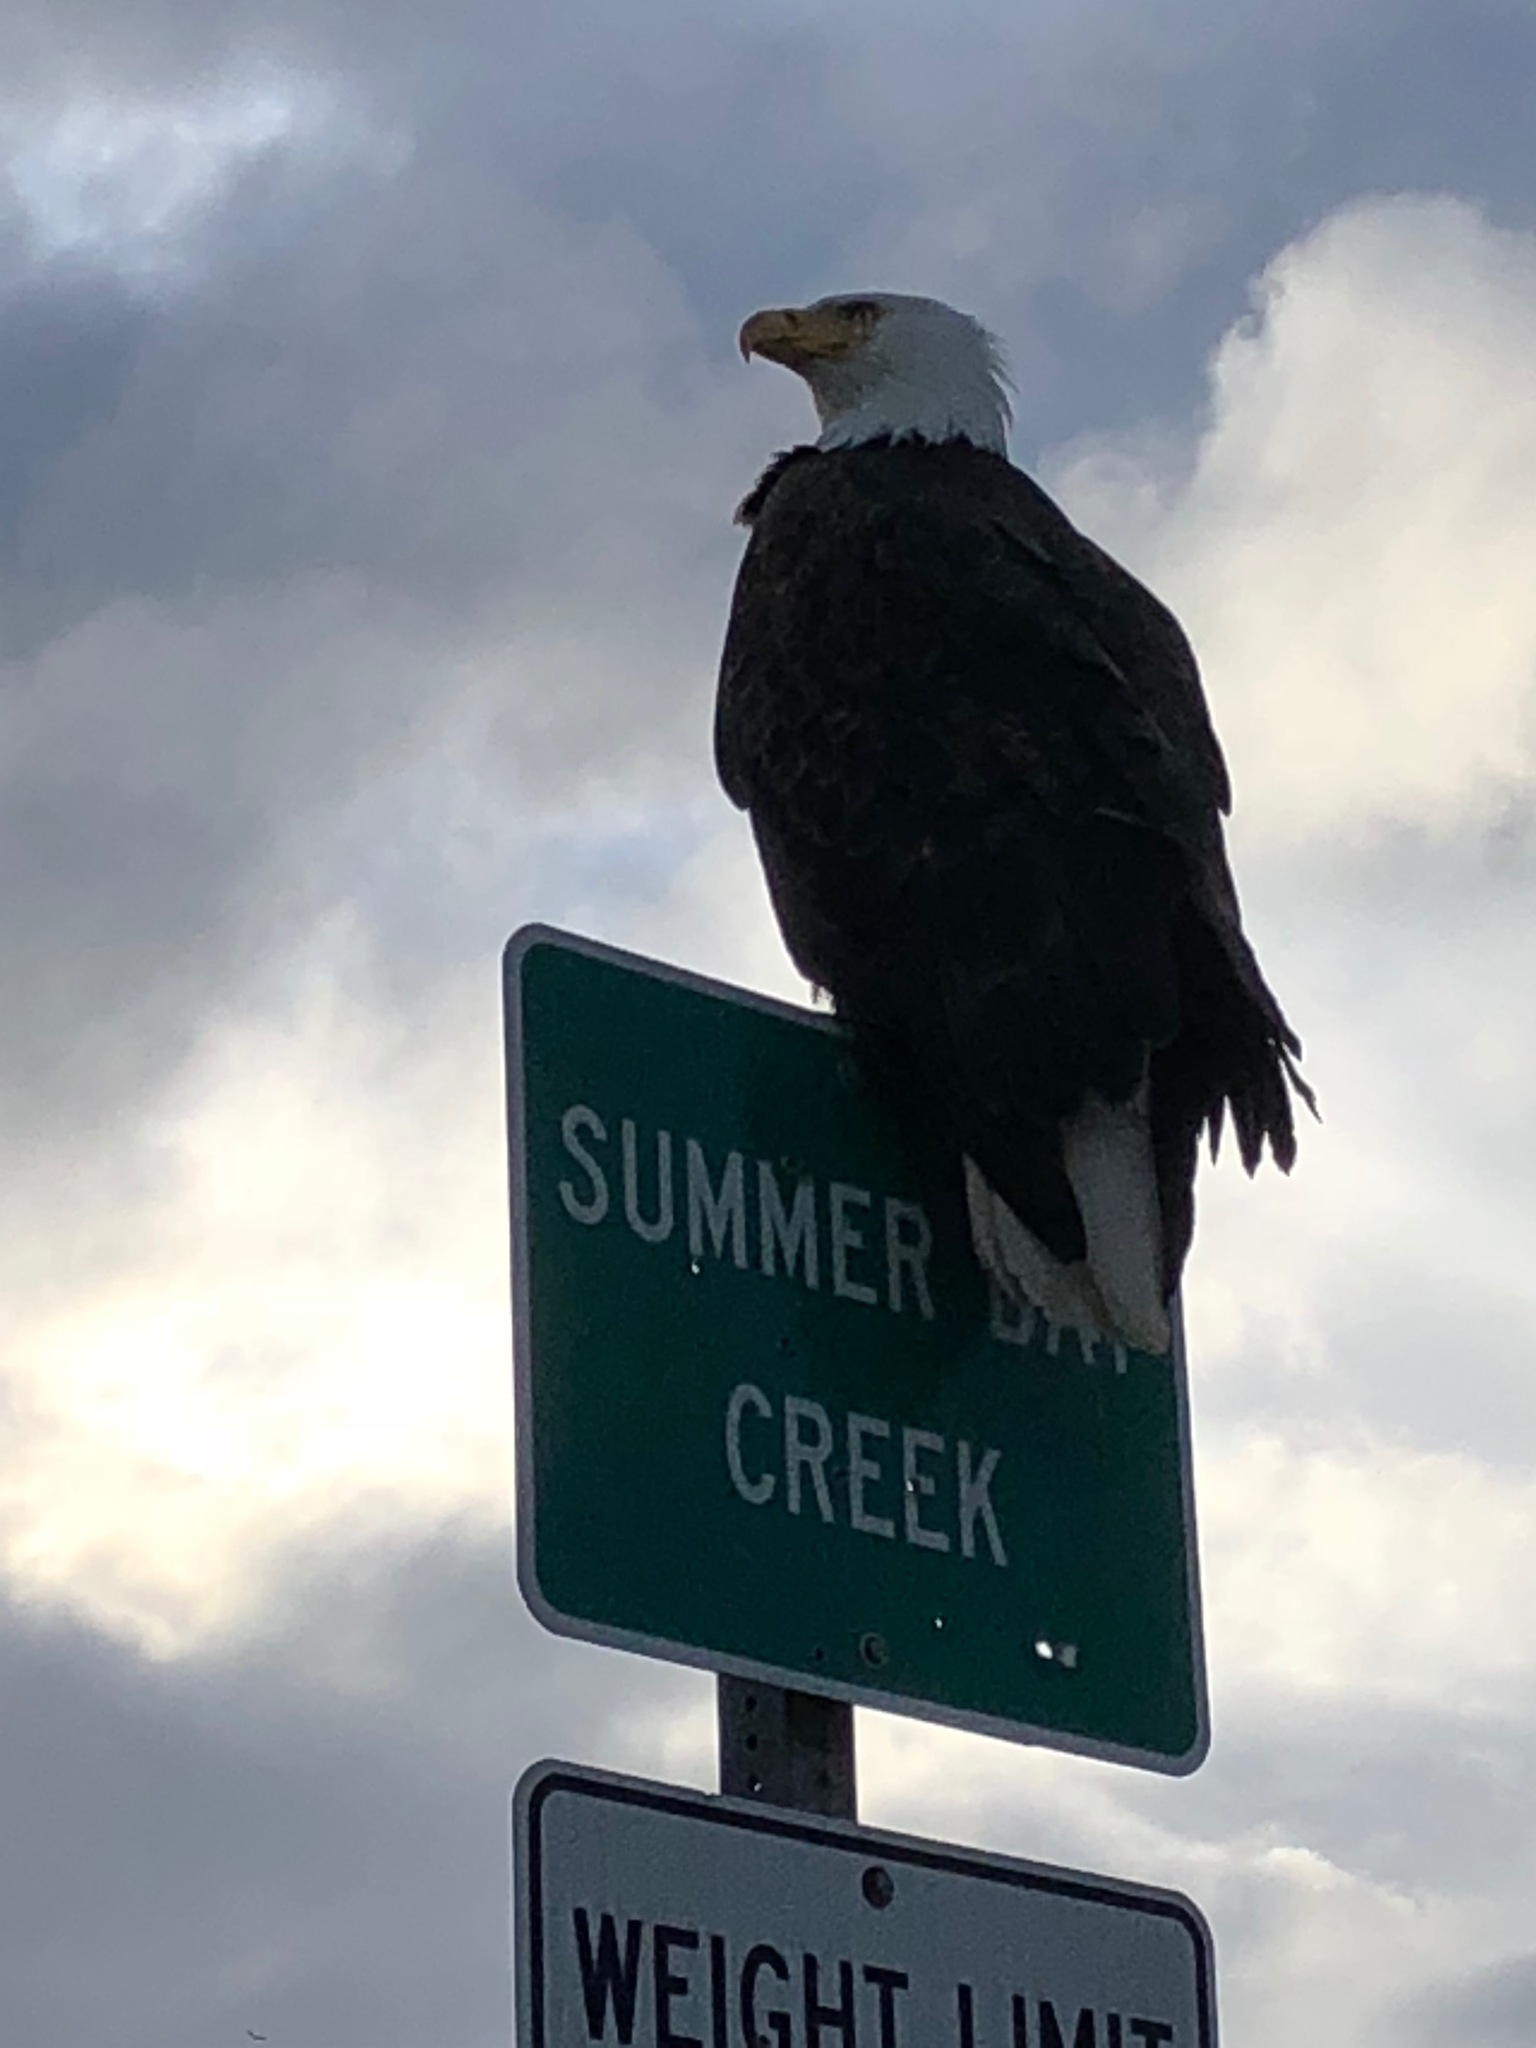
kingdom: Animalia
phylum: Chordata
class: Aves
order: Accipitriformes
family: Accipitridae
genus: Haliaeetus
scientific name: Haliaeetus leucocephalus
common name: Bald eagle
